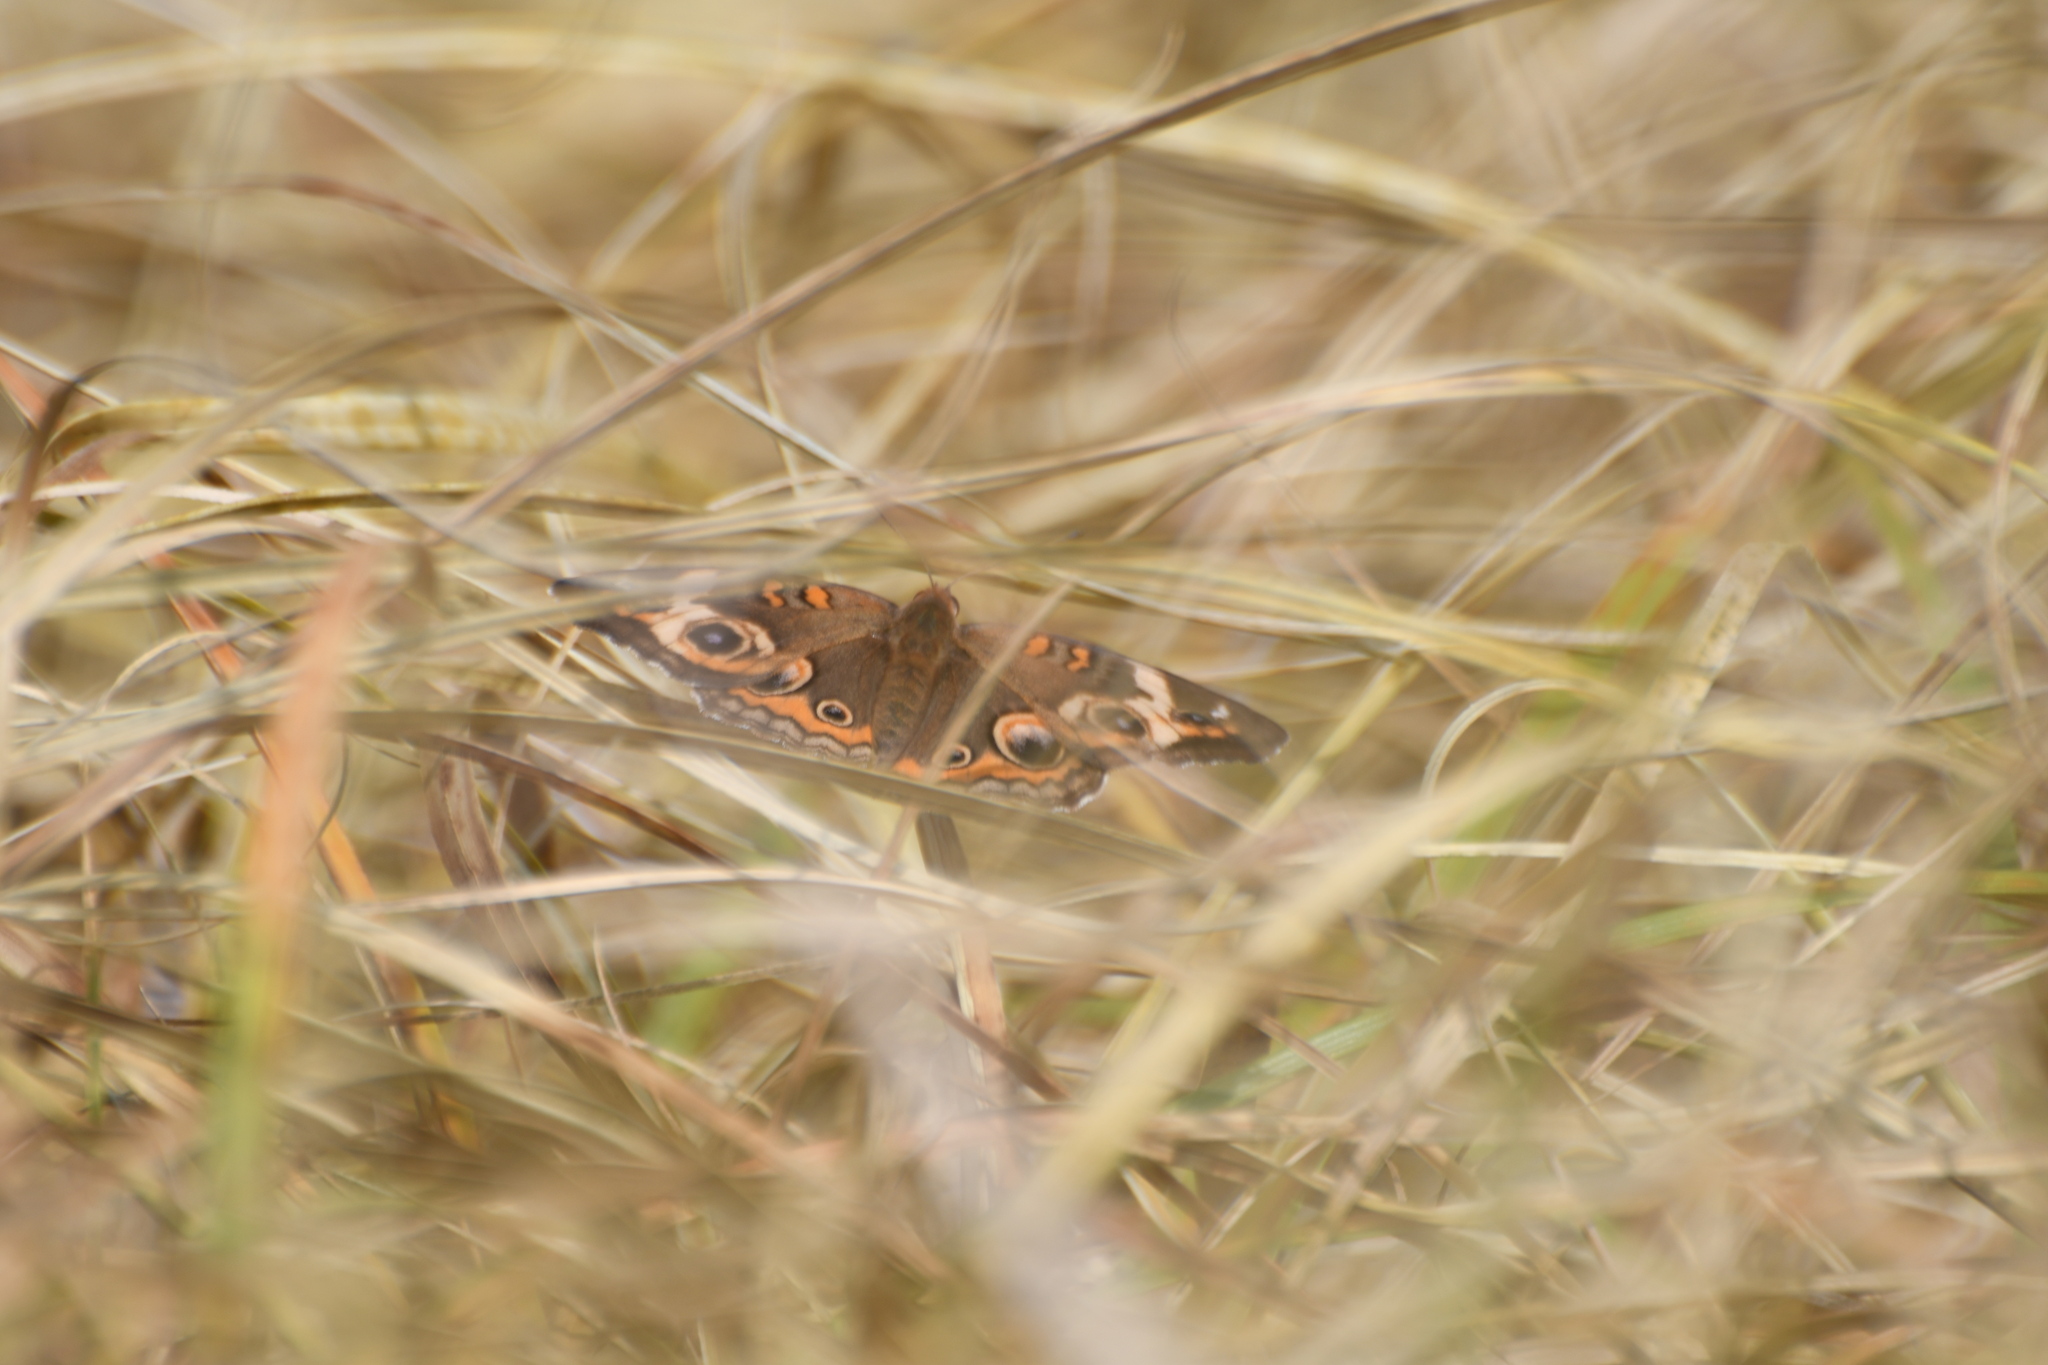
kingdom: Animalia
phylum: Arthropoda
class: Insecta
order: Lepidoptera
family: Nymphalidae
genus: Junonia
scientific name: Junonia coenia
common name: Common buckeye
